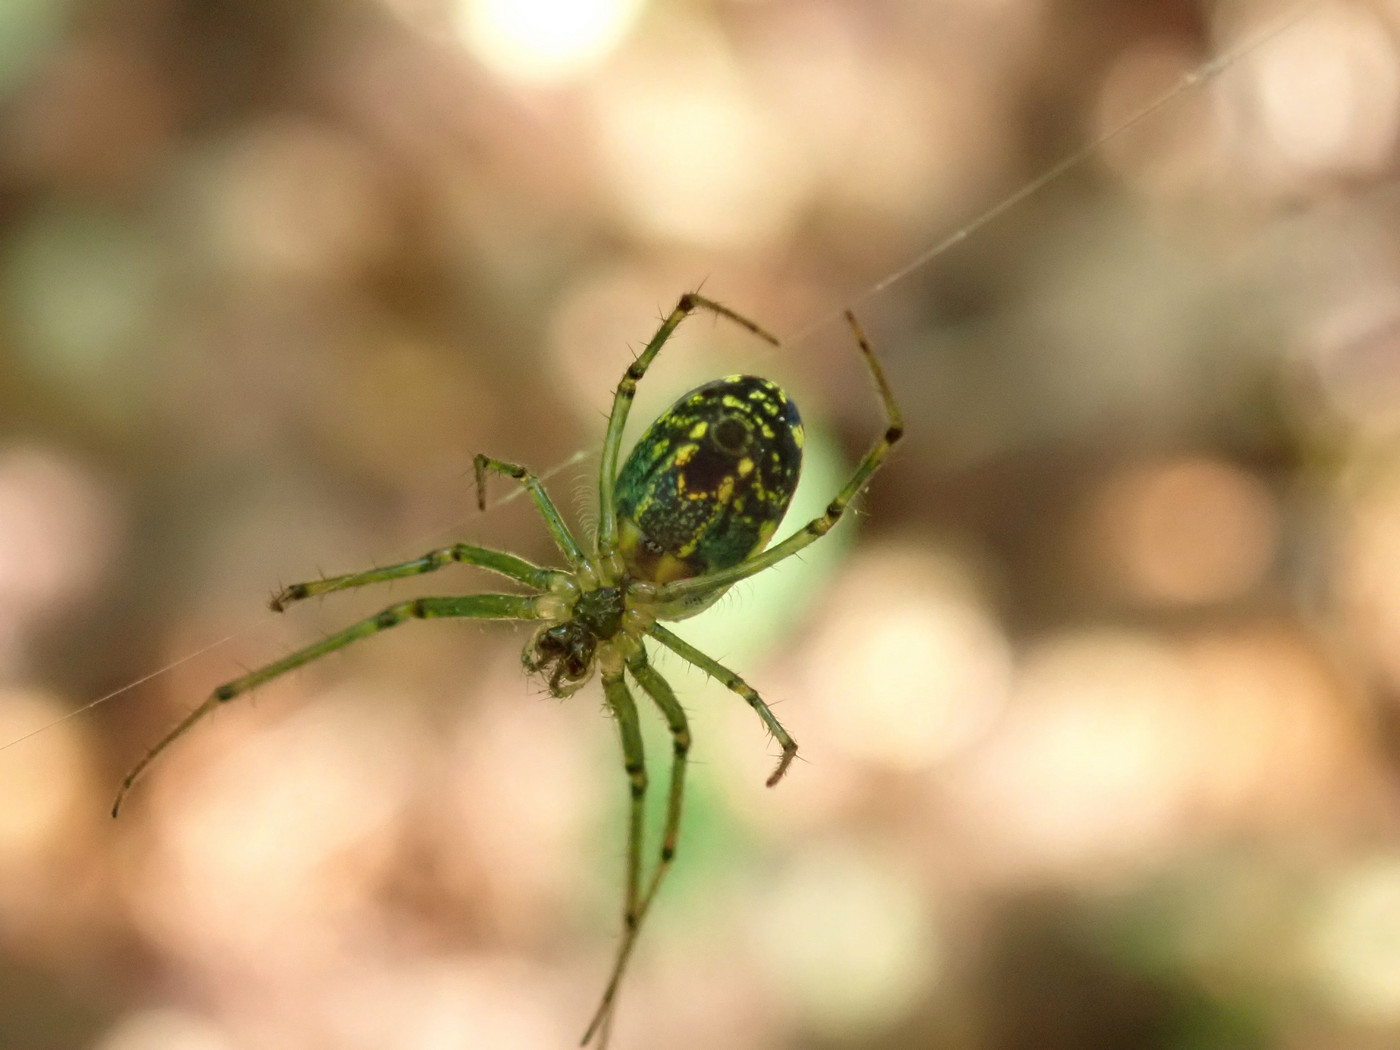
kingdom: Animalia
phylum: Arthropoda
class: Arachnida
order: Araneae
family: Tetragnathidae
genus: Leucauge
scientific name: Leucauge venusta
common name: Longjawed orb weavers
